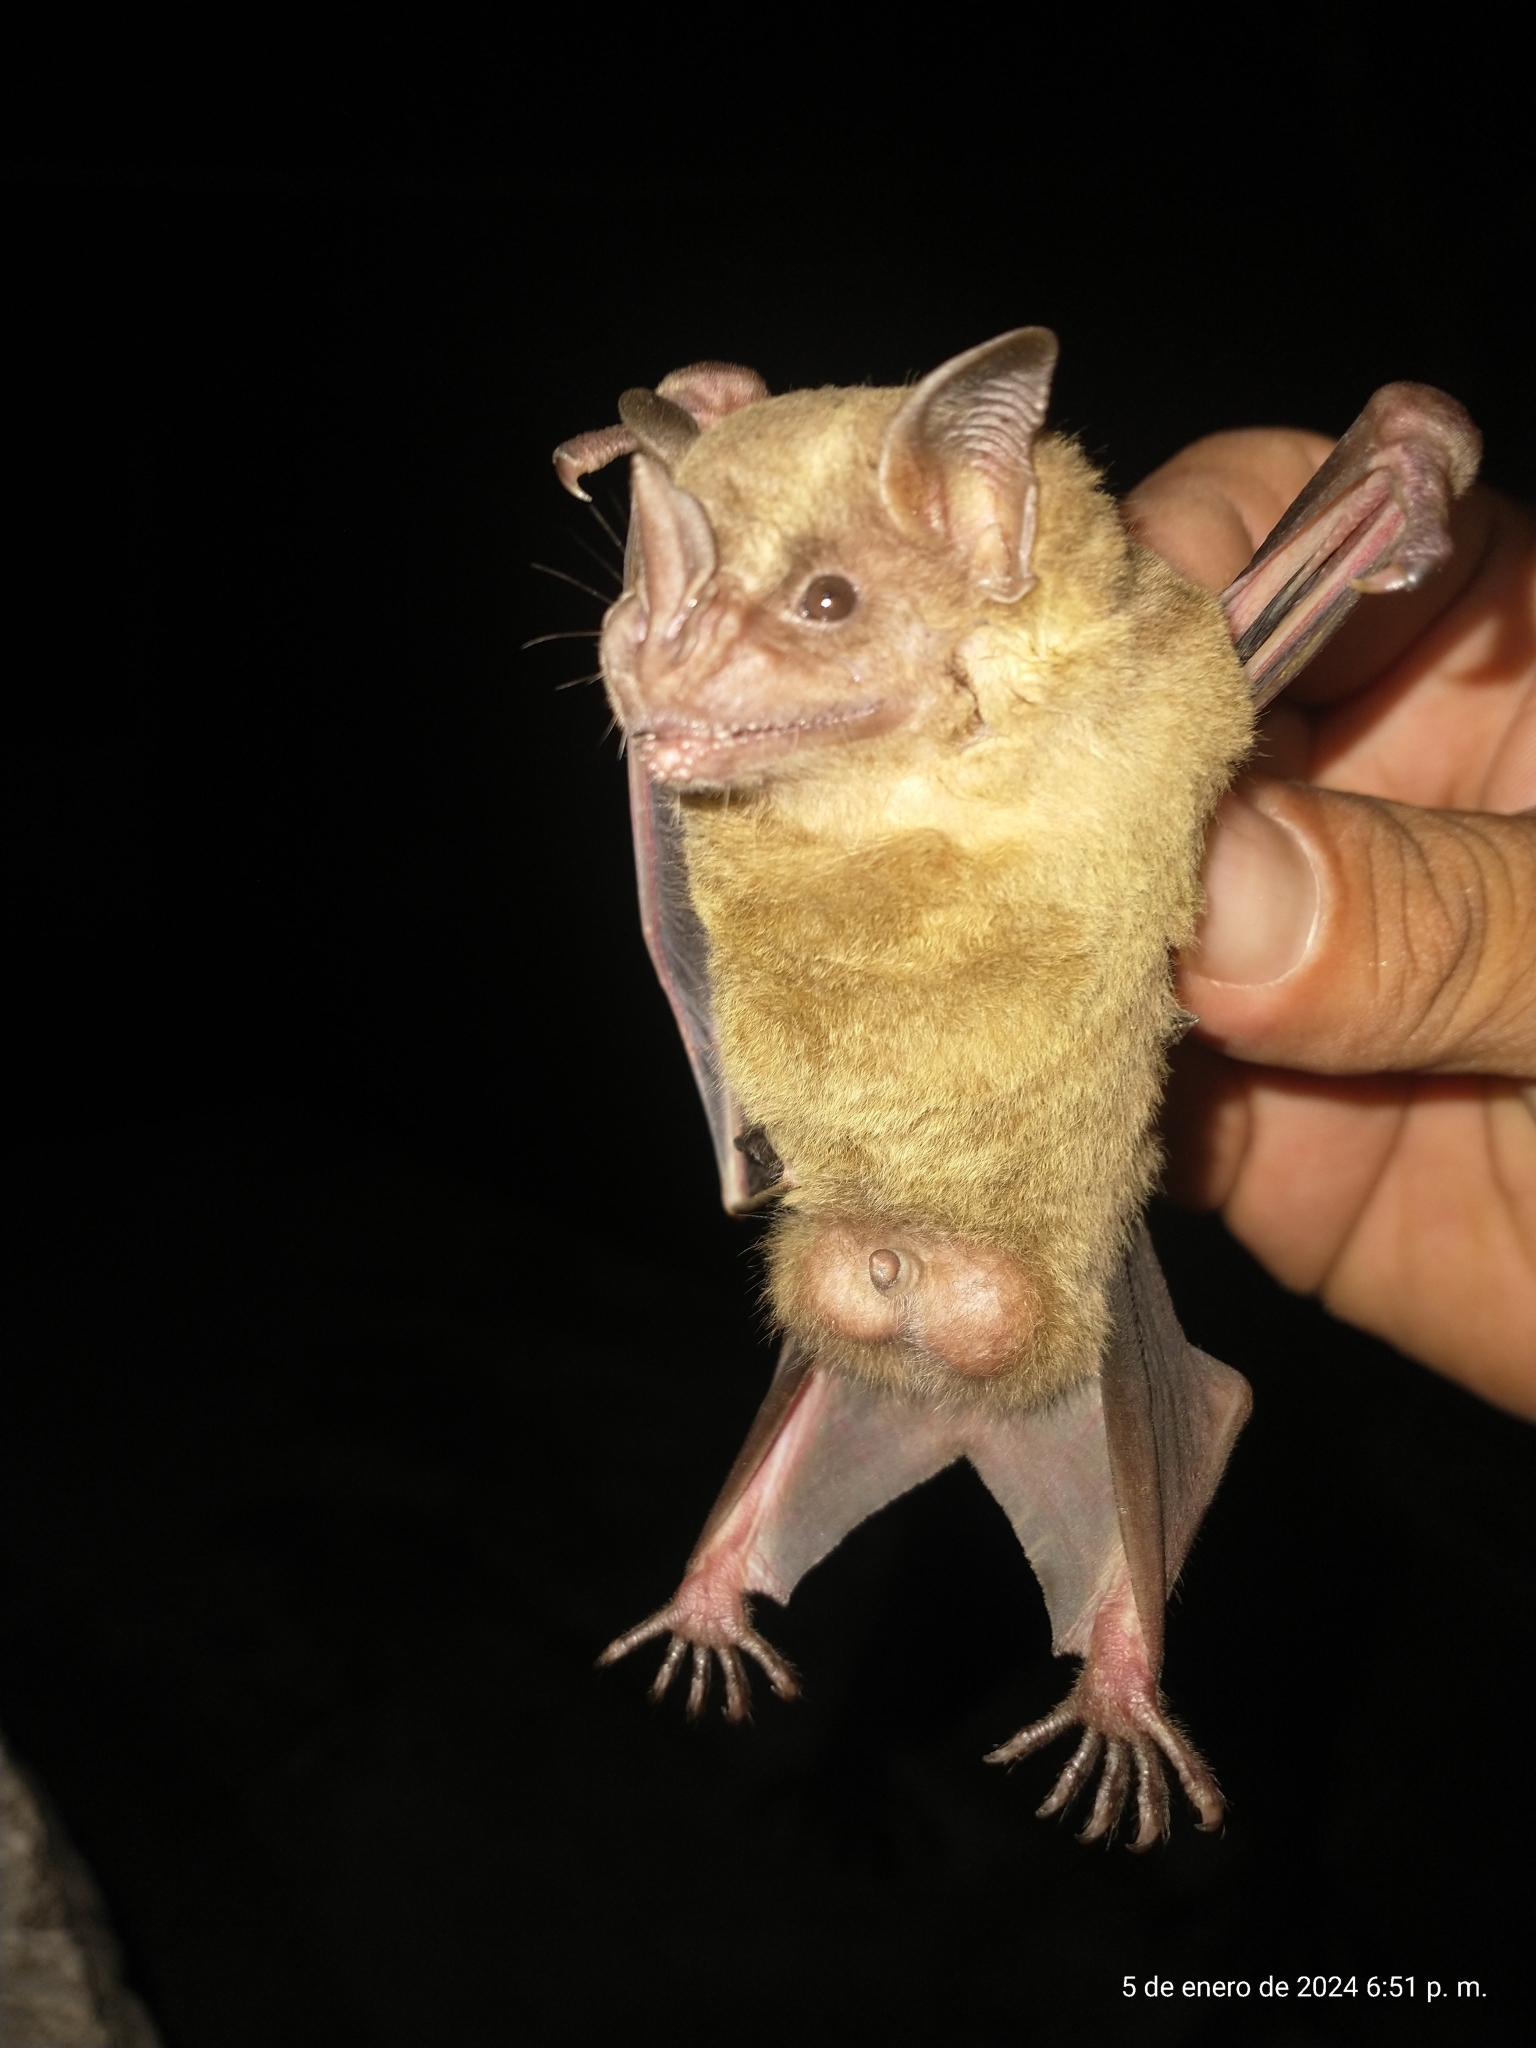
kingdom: Animalia
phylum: Chordata
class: Mammalia
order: Chiroptera
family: Phyllostomidae
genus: Artibeus
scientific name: Artibeus jamaicensis
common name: Jamaican fruit-eating bat
